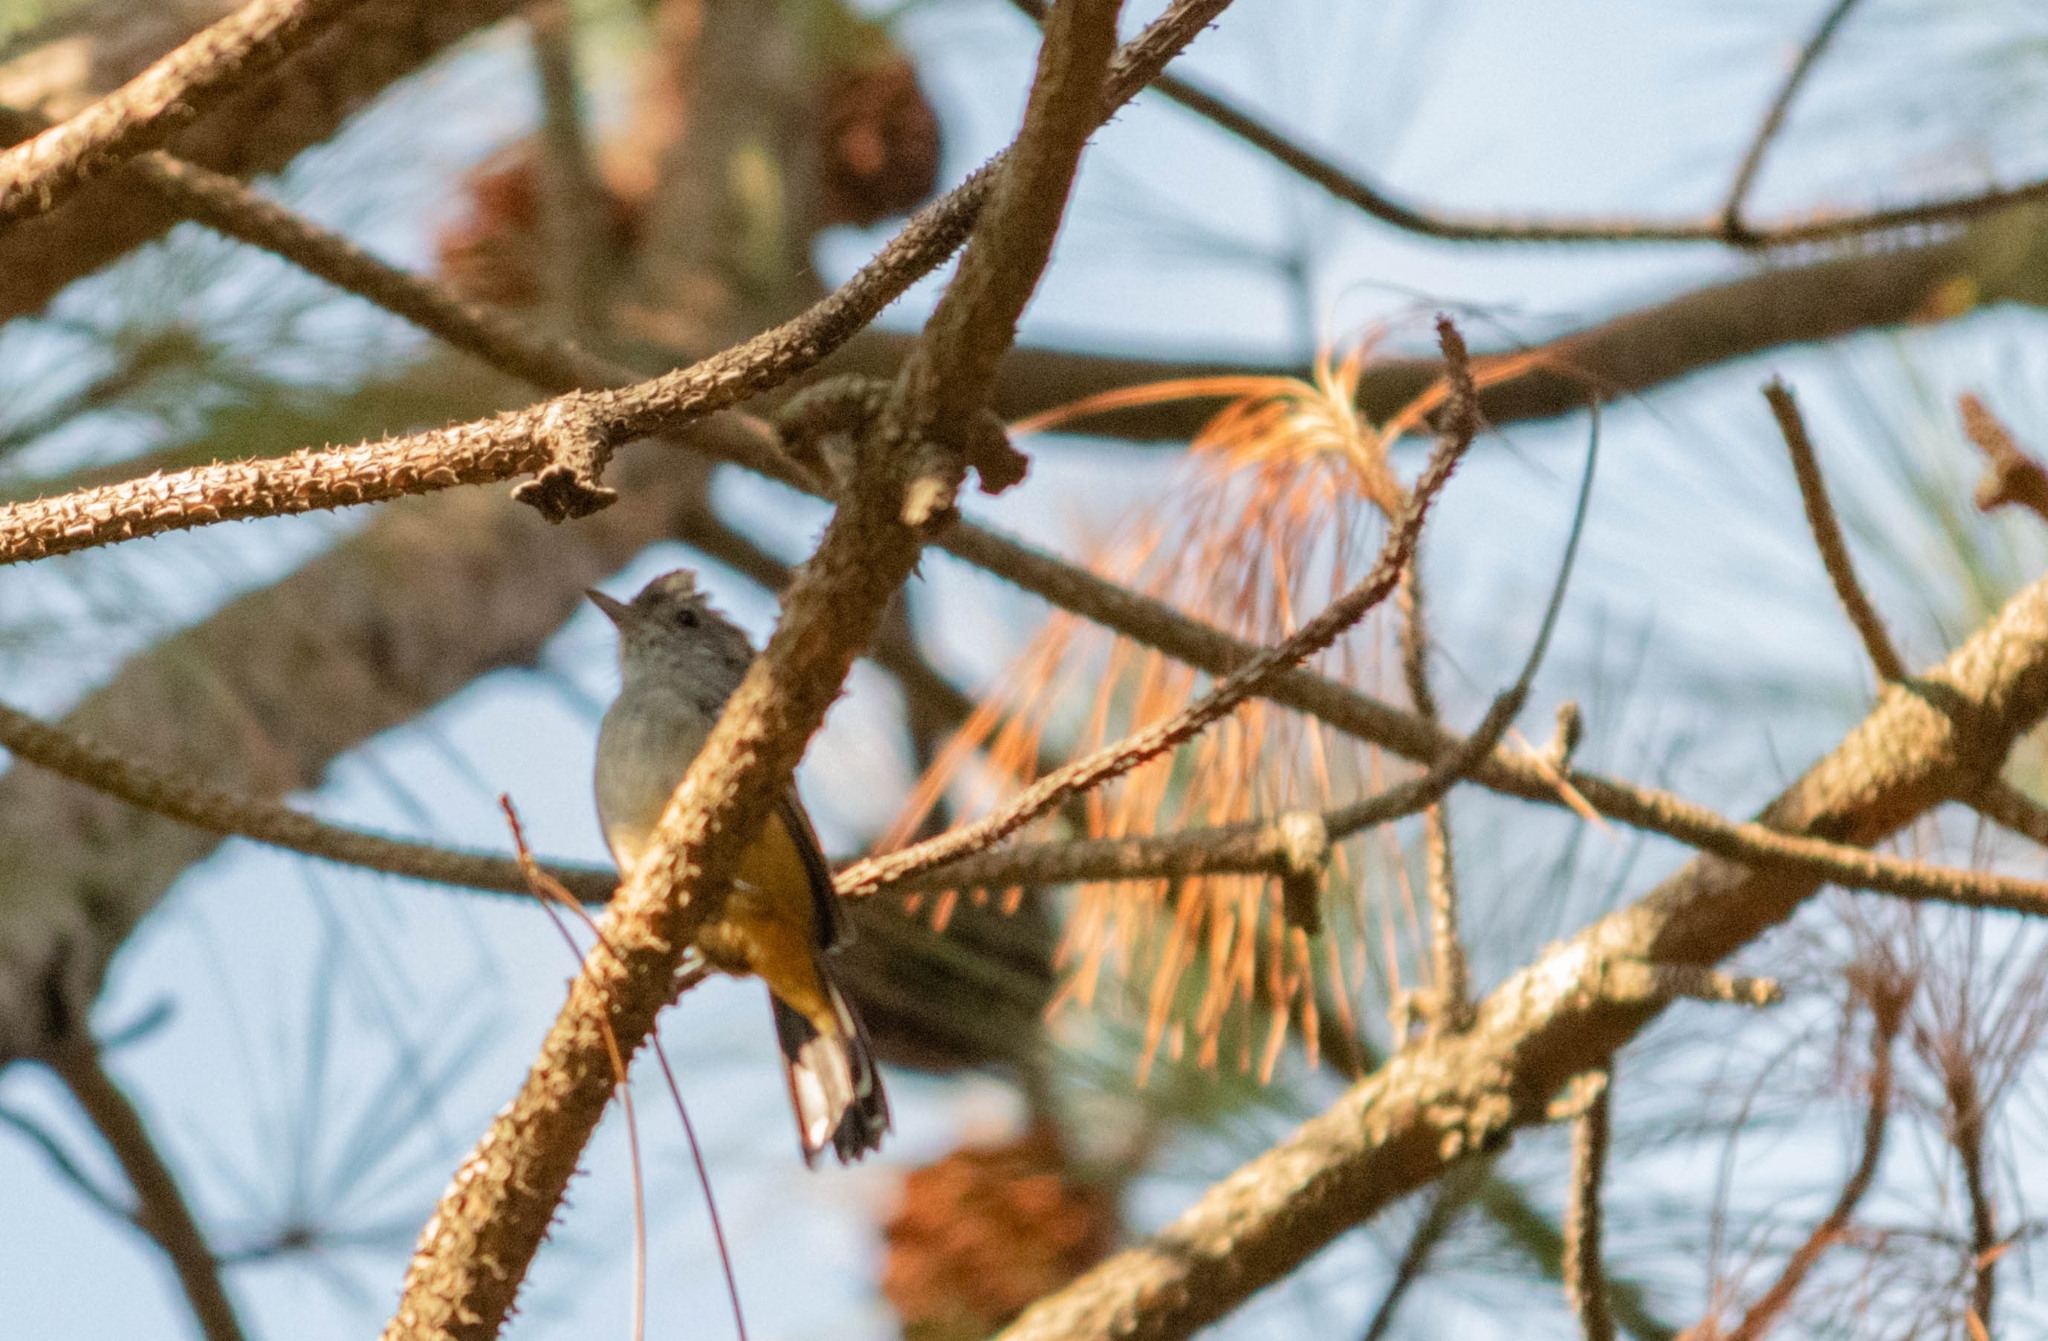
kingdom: Animalia
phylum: Chordata
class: Aves
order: Passeriformes
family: Thamnophilidae
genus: Thamnophilus
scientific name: Thamnophilus caerulescens
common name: Variable antshrike
